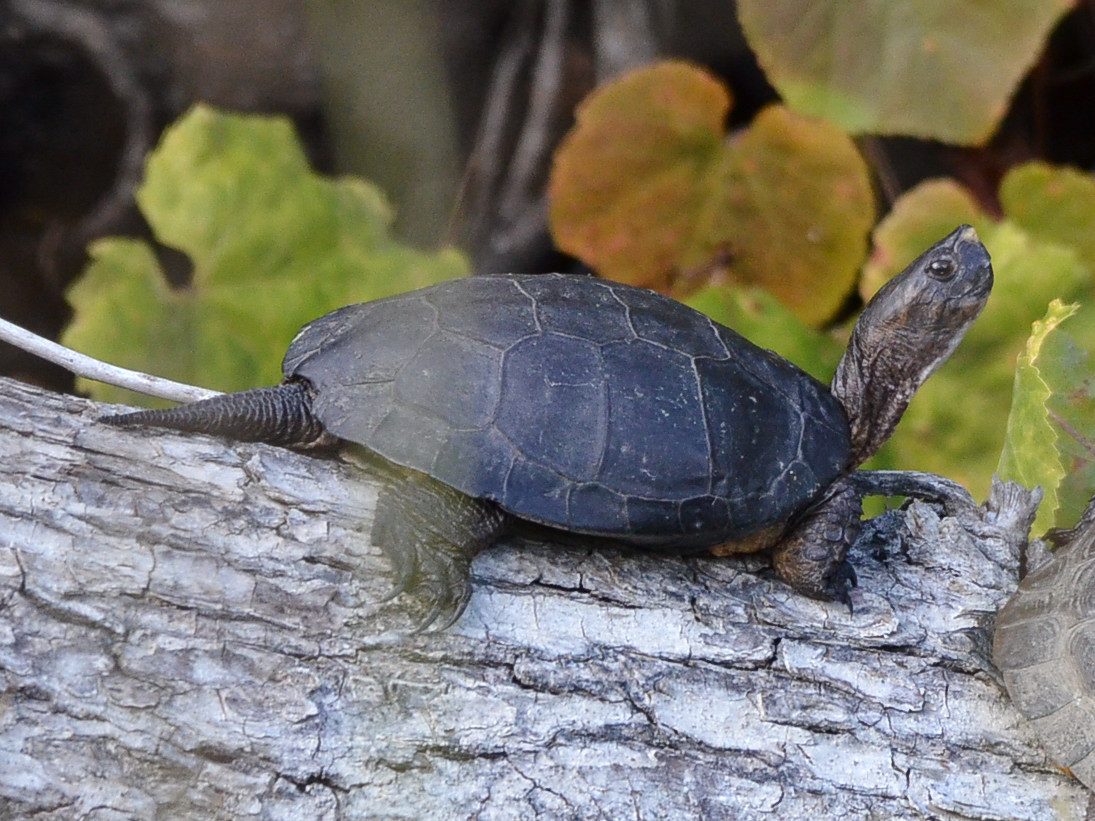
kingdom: Animalia
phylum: Chordata
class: Testudines
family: Emydidae
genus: Actinemys
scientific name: Actinemys marmorata
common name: Western pond turtle
